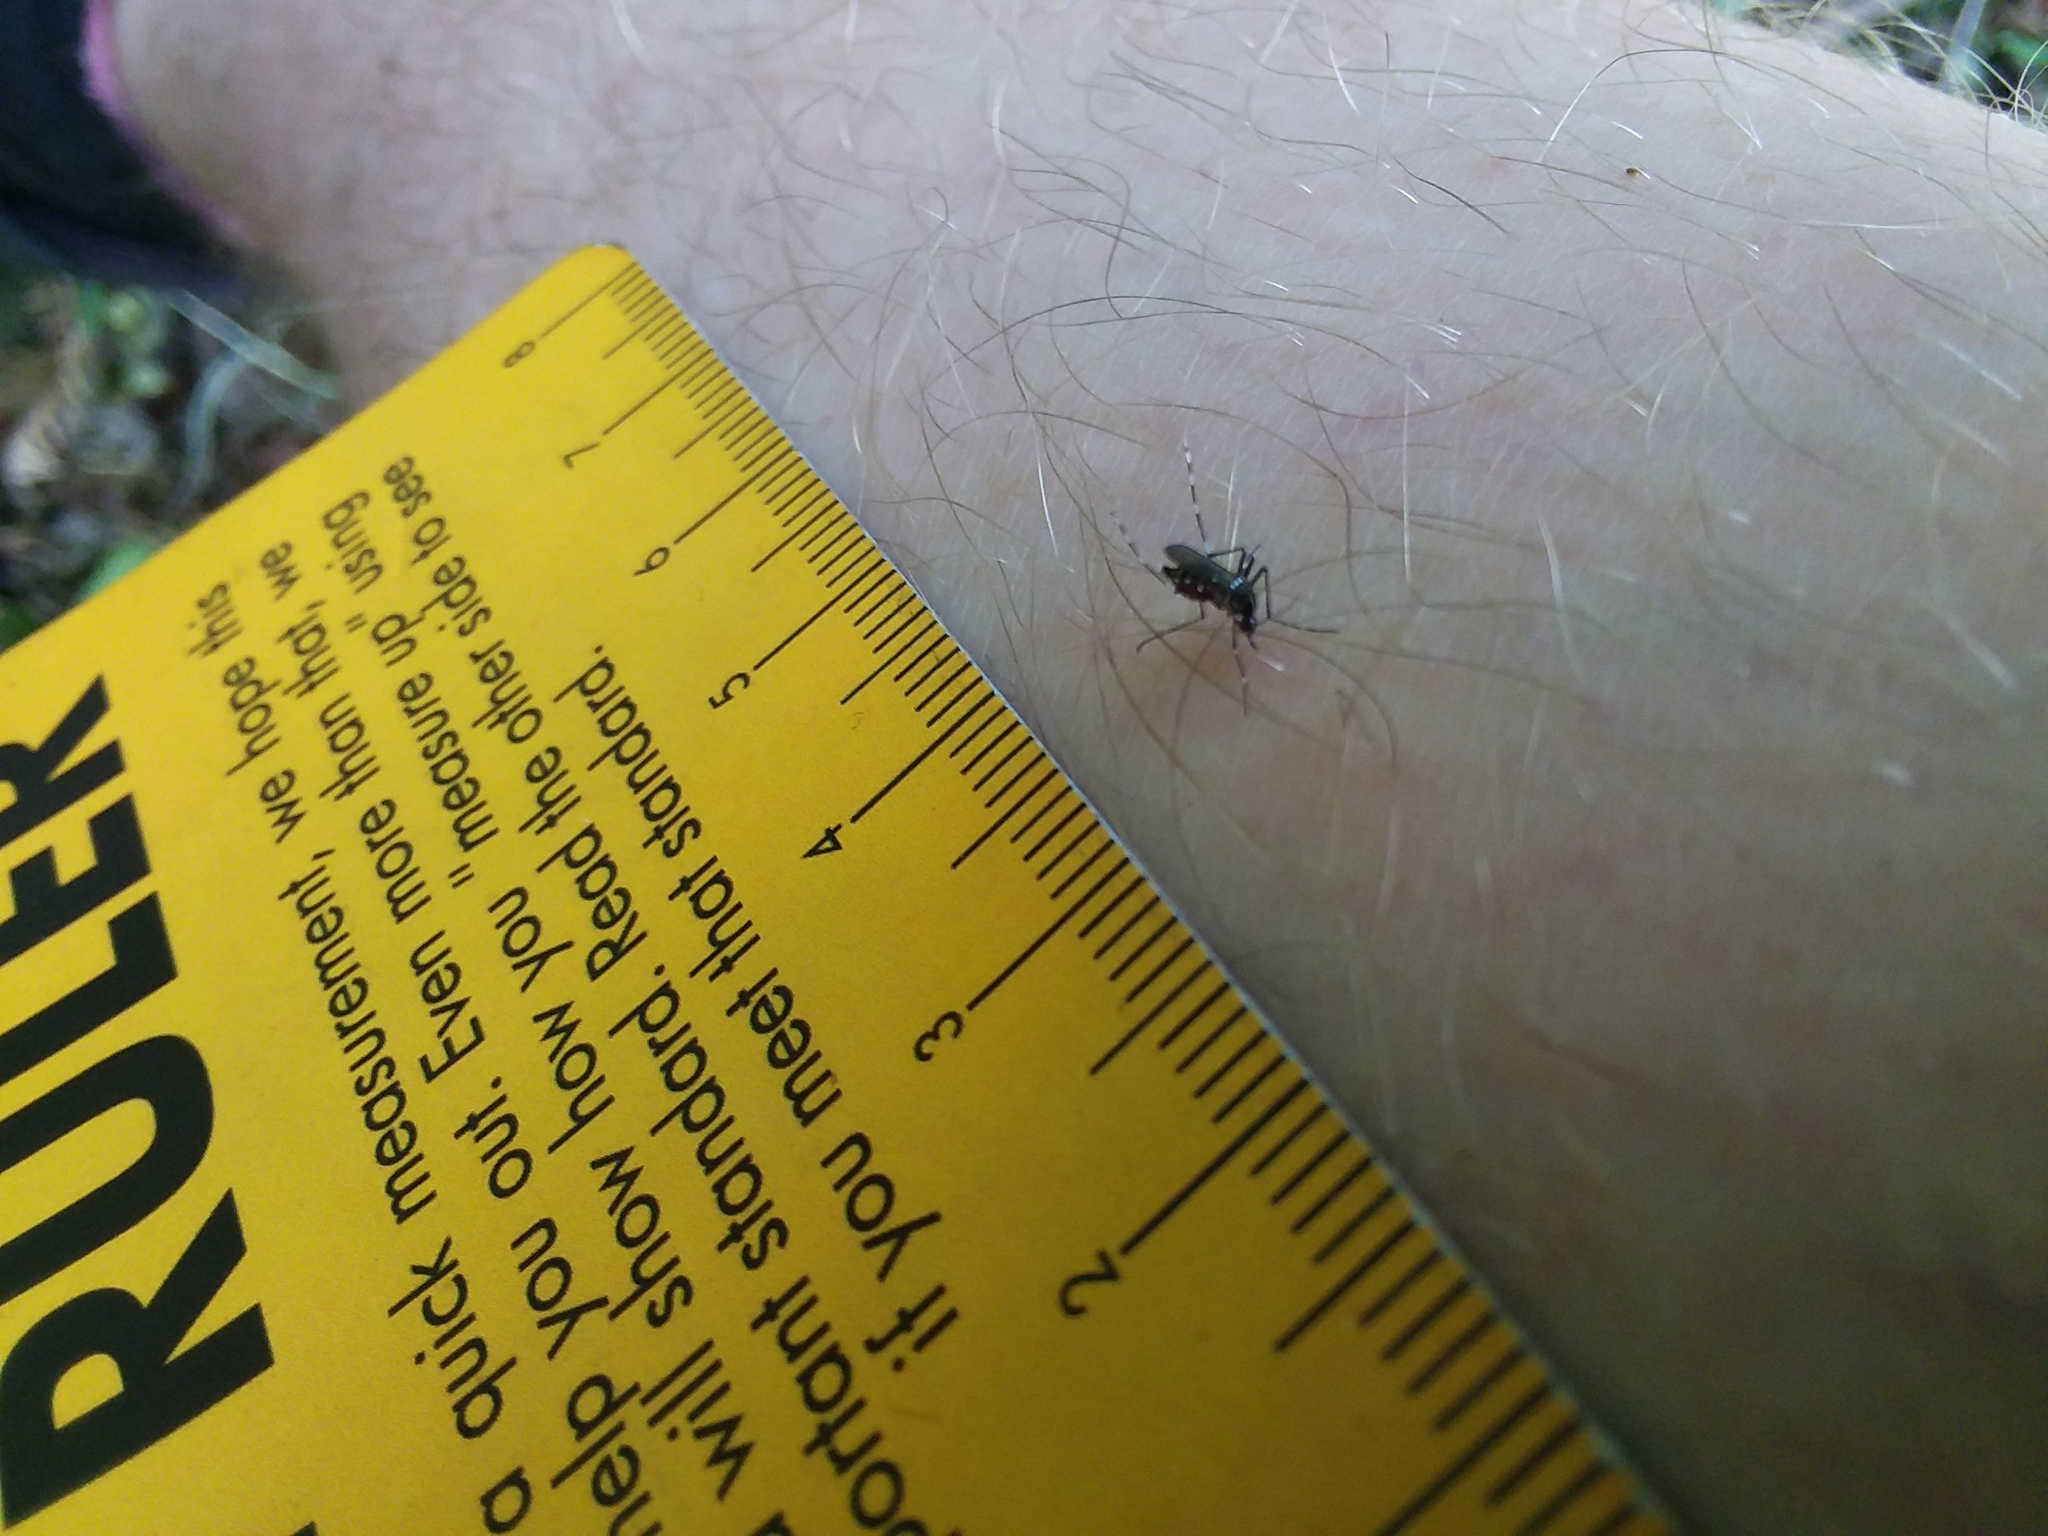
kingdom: Animalia
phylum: Arthropoda
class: Insecta
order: Diptera
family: Culicidae
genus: Aedes
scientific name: Aedes albopictus
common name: Tiger mosquito
